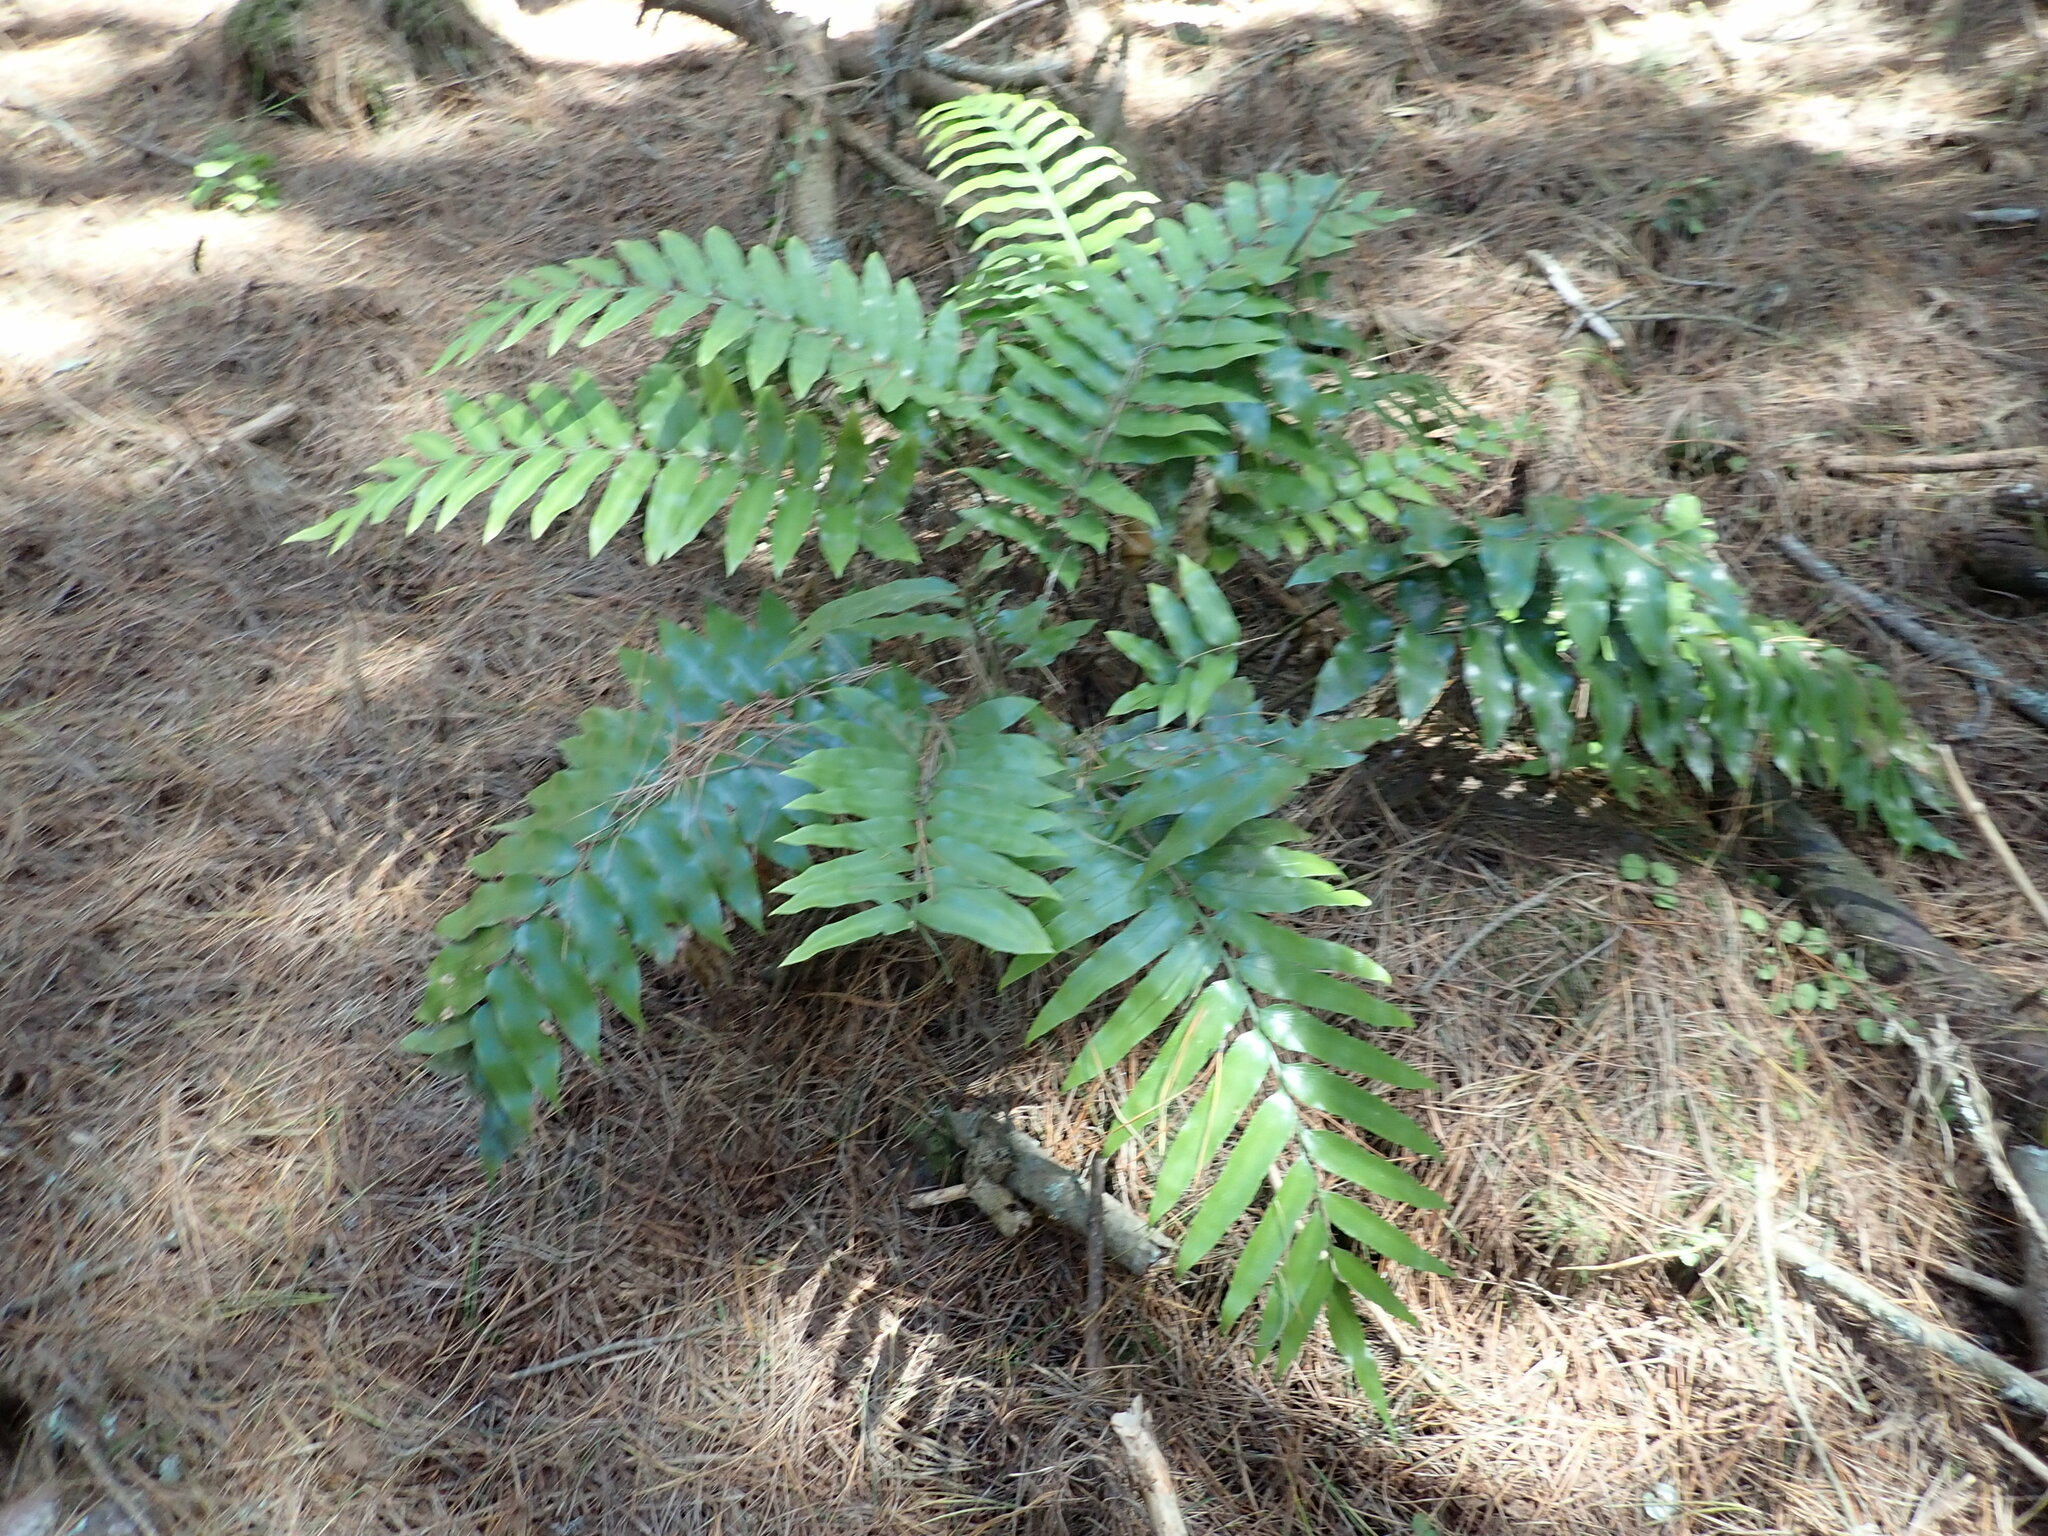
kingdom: Plantae
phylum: Tracheophyta
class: Polypodiopsida
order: Polypodiales
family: Aspleniaceae
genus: Asplenium
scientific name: Asplenium oblongifolium
